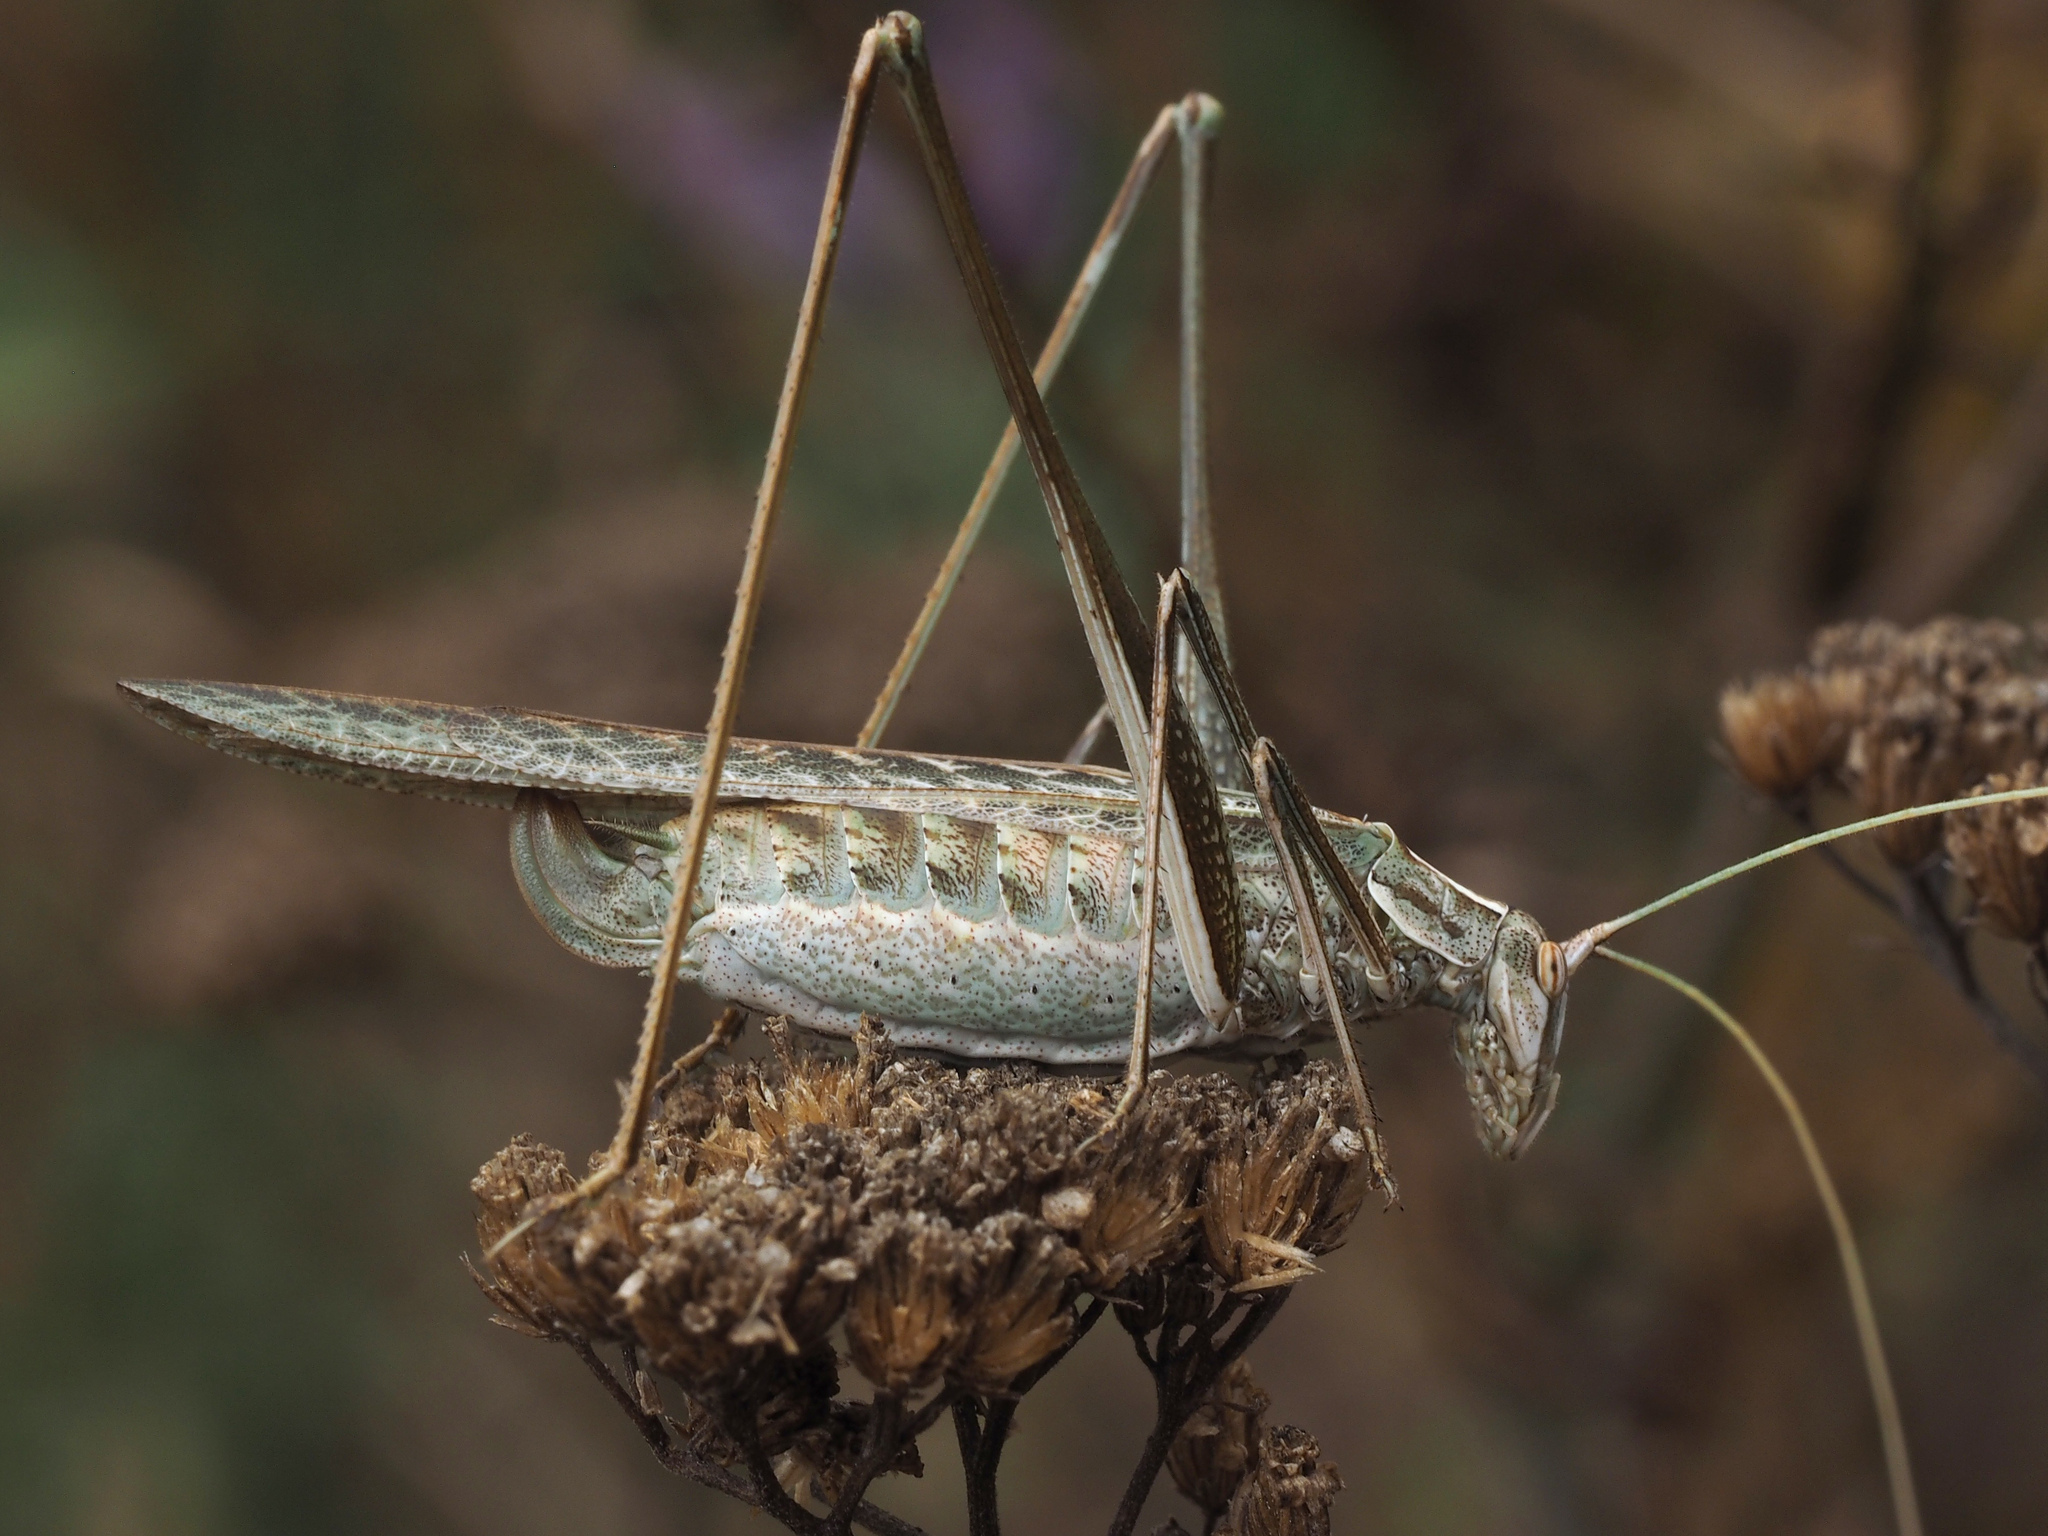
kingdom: Animalia
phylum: Arthropoda
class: Insecta
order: Orthoptera
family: Tettigoniidae
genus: Tylopsis
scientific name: Tylopsis lilifolia
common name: Lily bush-cricket
